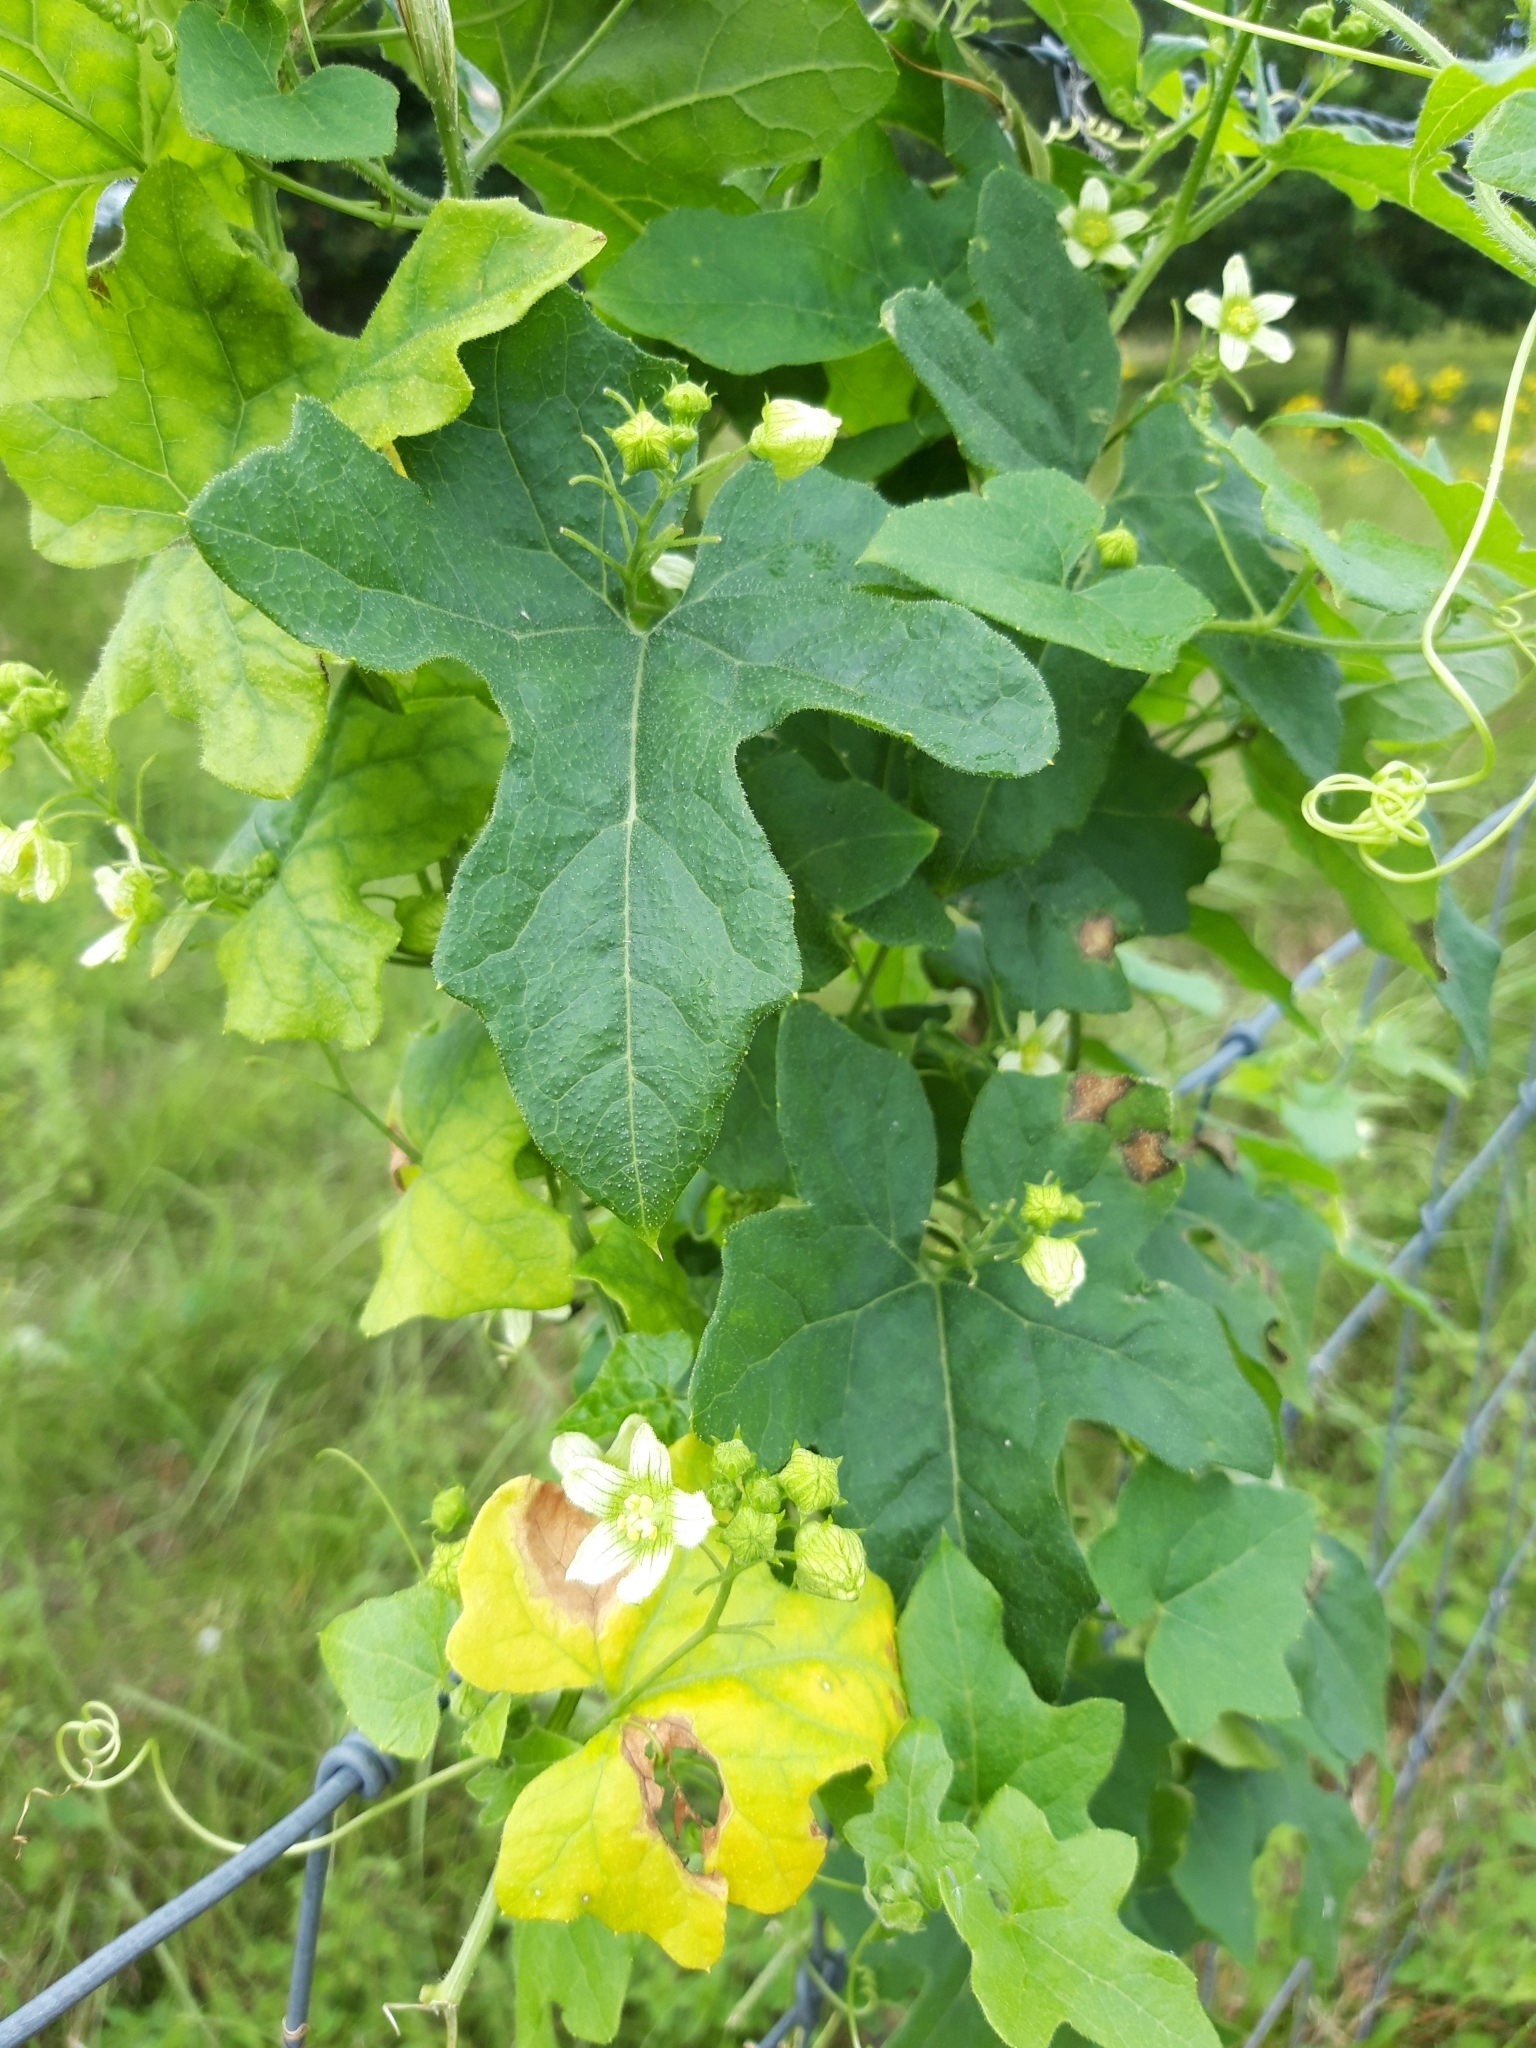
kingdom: Plantae
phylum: Tracheophyta
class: Magnoliopsida
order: Cucurbitales
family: Cucurbitaceae
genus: Bryonia
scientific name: Bryonia cretica
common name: Cretan bryony
